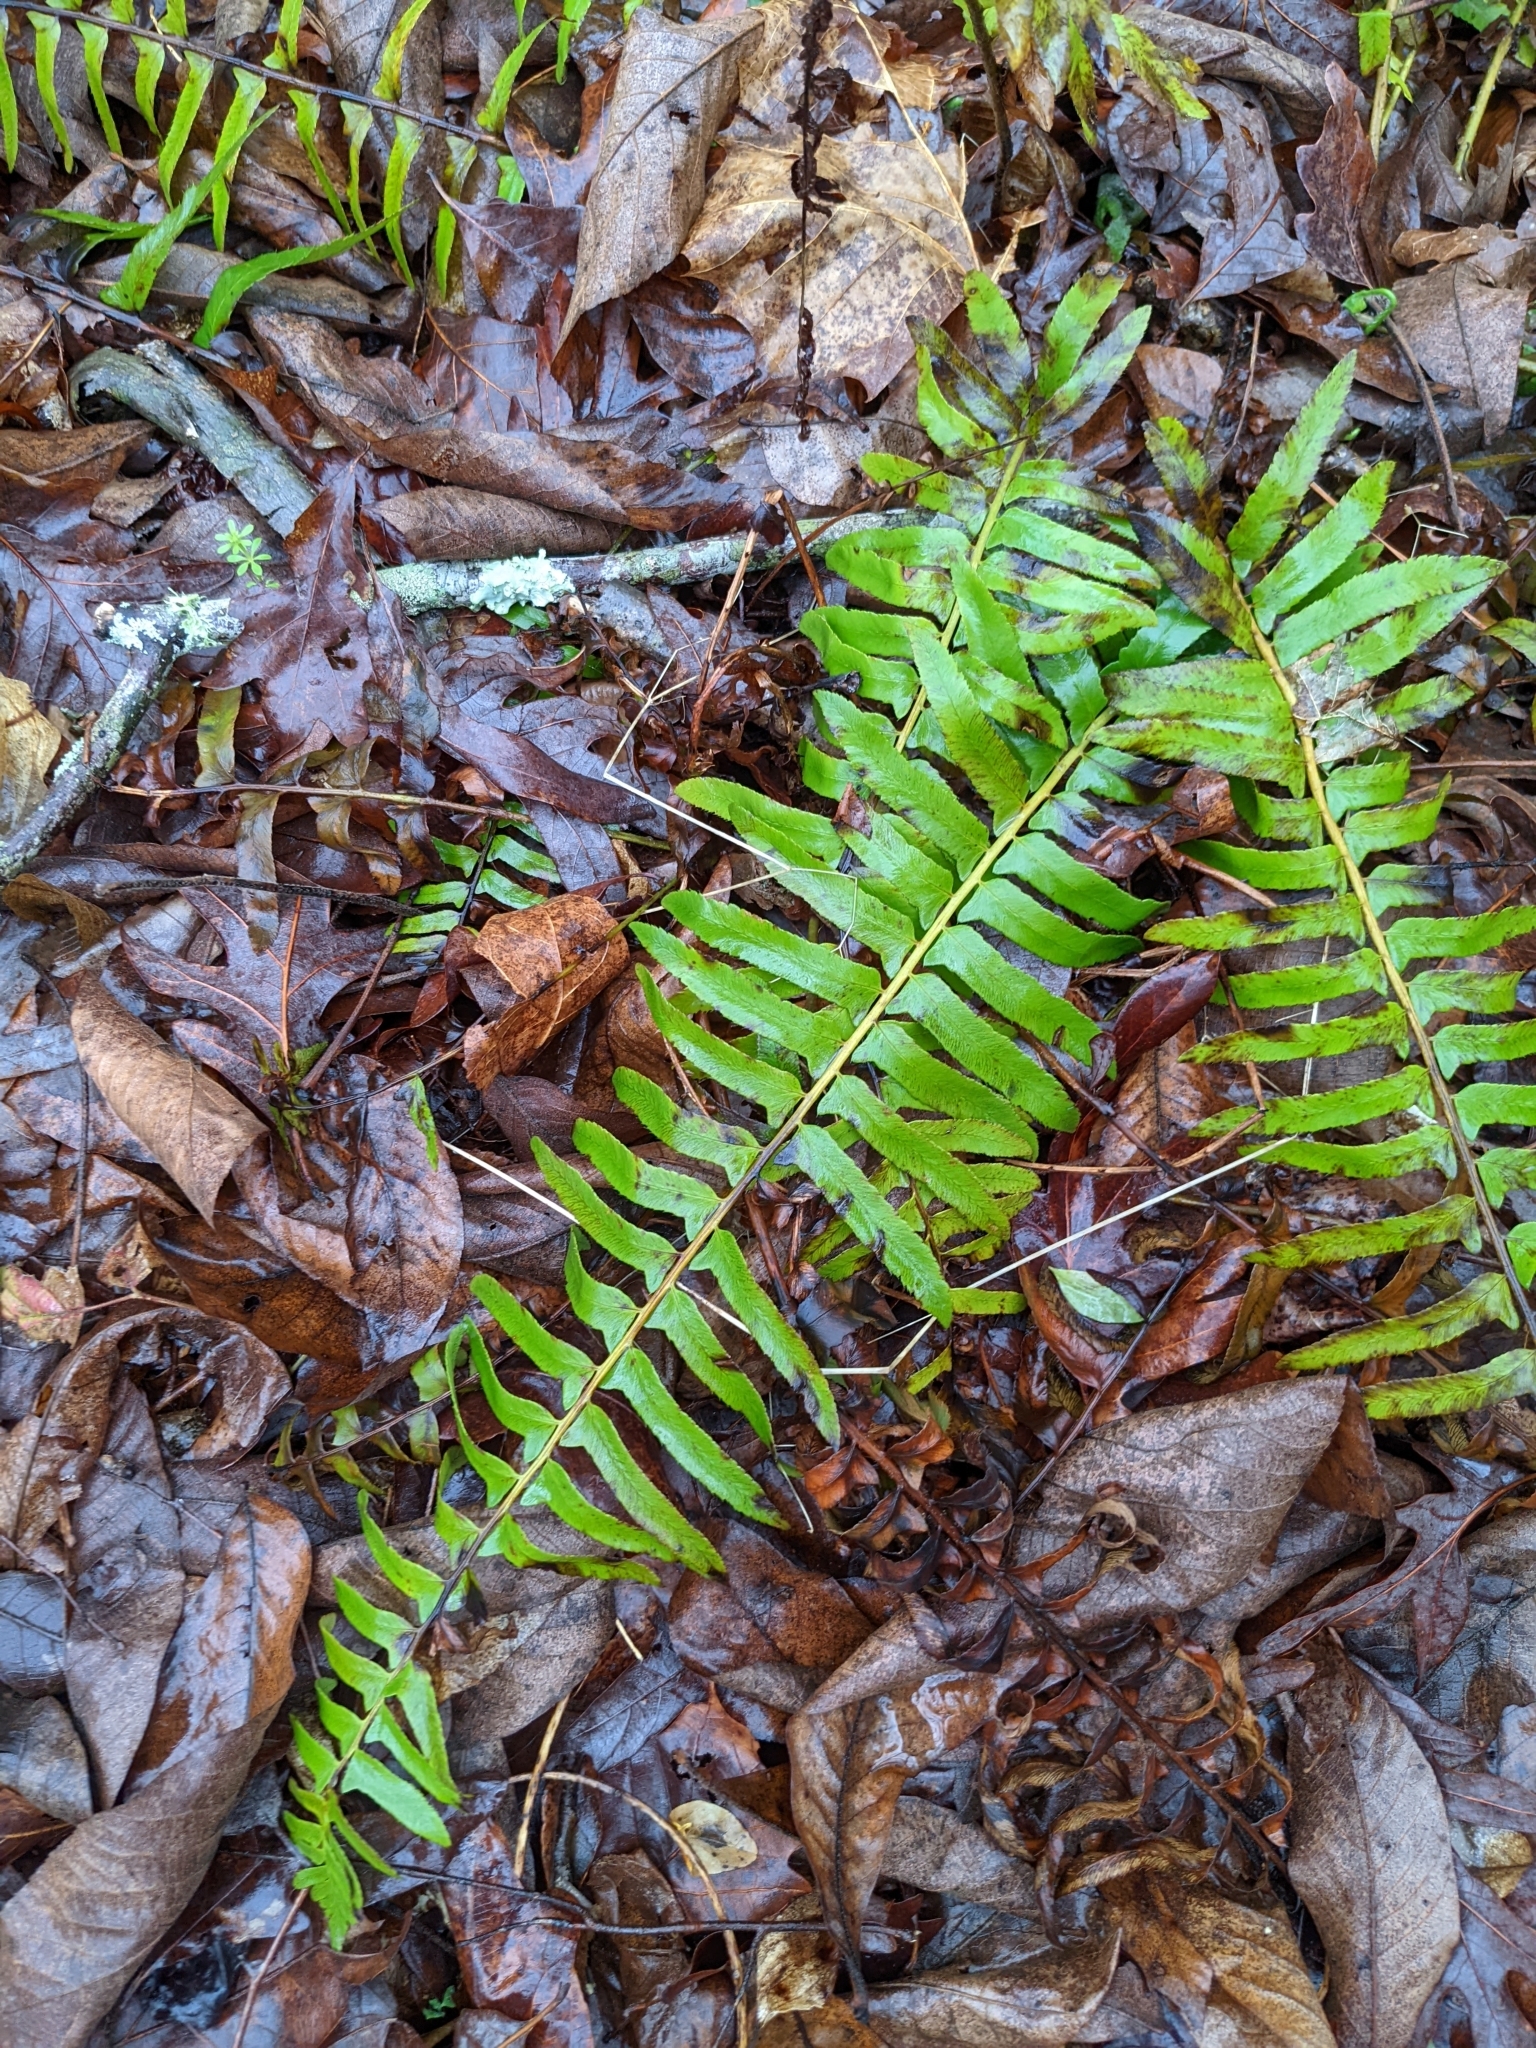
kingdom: Plantae
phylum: Tracheophyta
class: Polypodiopsida
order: Polypodiales
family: Dryopteridaceae
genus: Polystichum
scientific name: Polystichum acrostichoides
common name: Christmas fern
